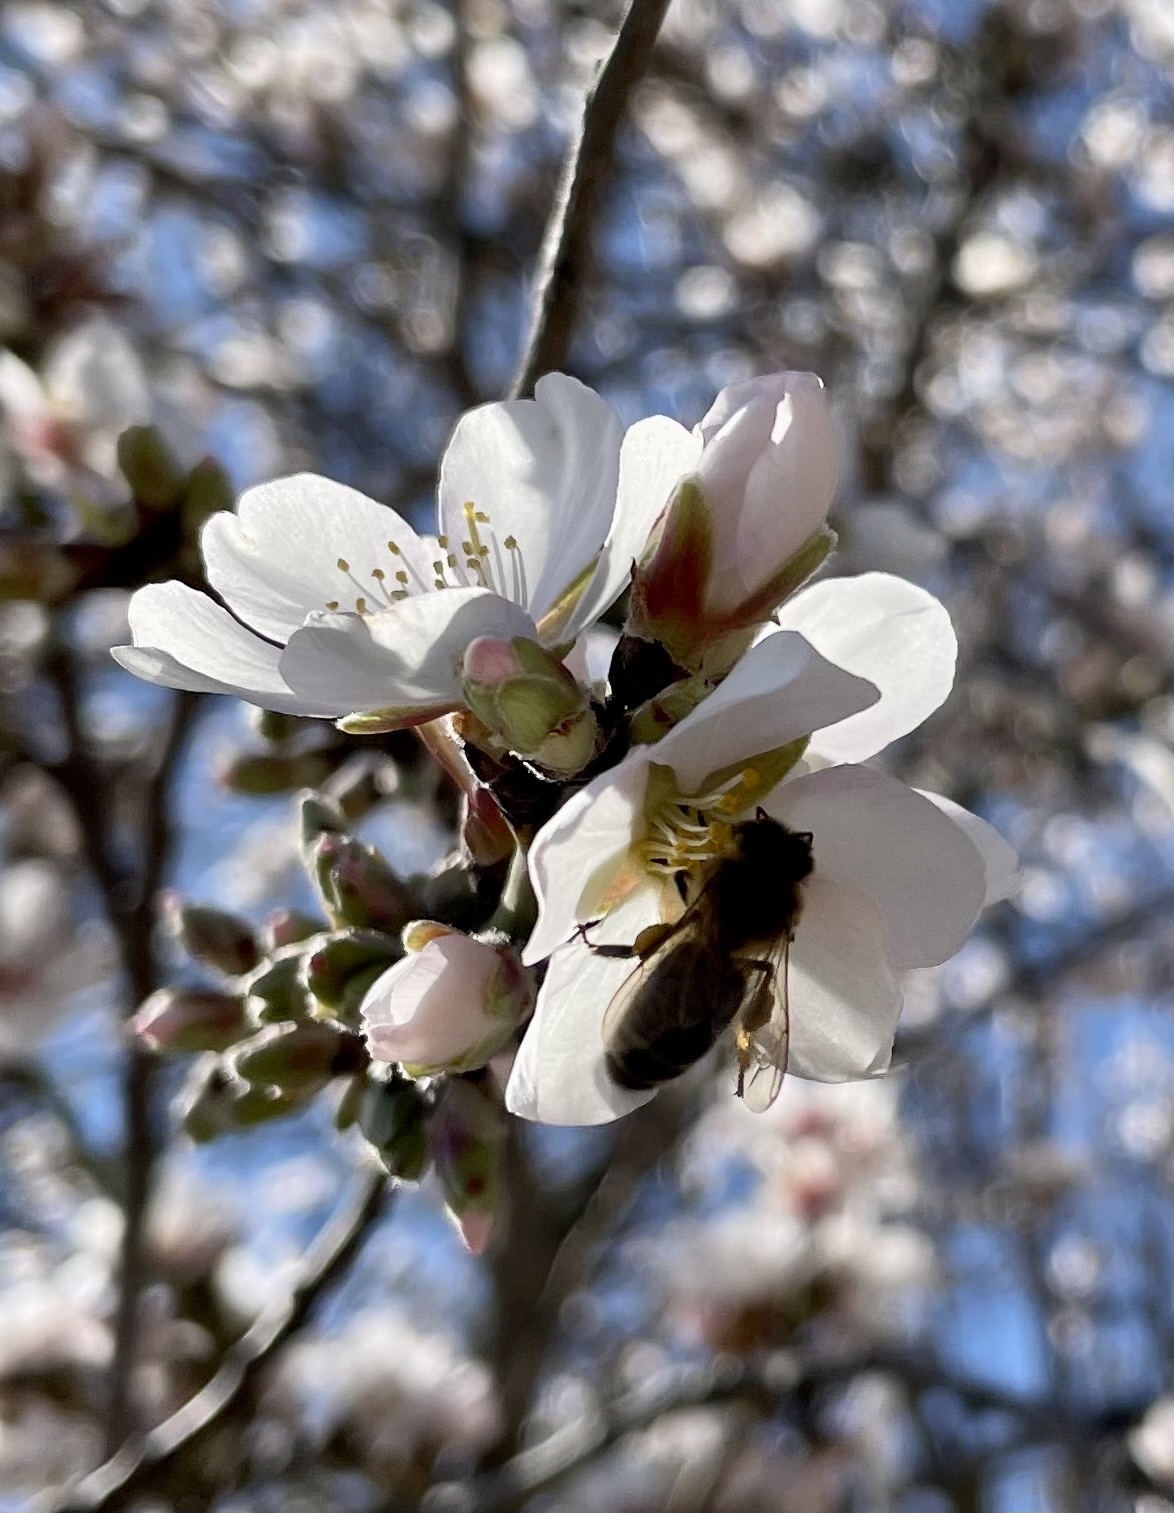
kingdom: Animalia
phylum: Arthropoda
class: Insecta
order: Hymenoptera
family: Apidae
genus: Apis
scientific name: Apis mellifera
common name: Honey bee
